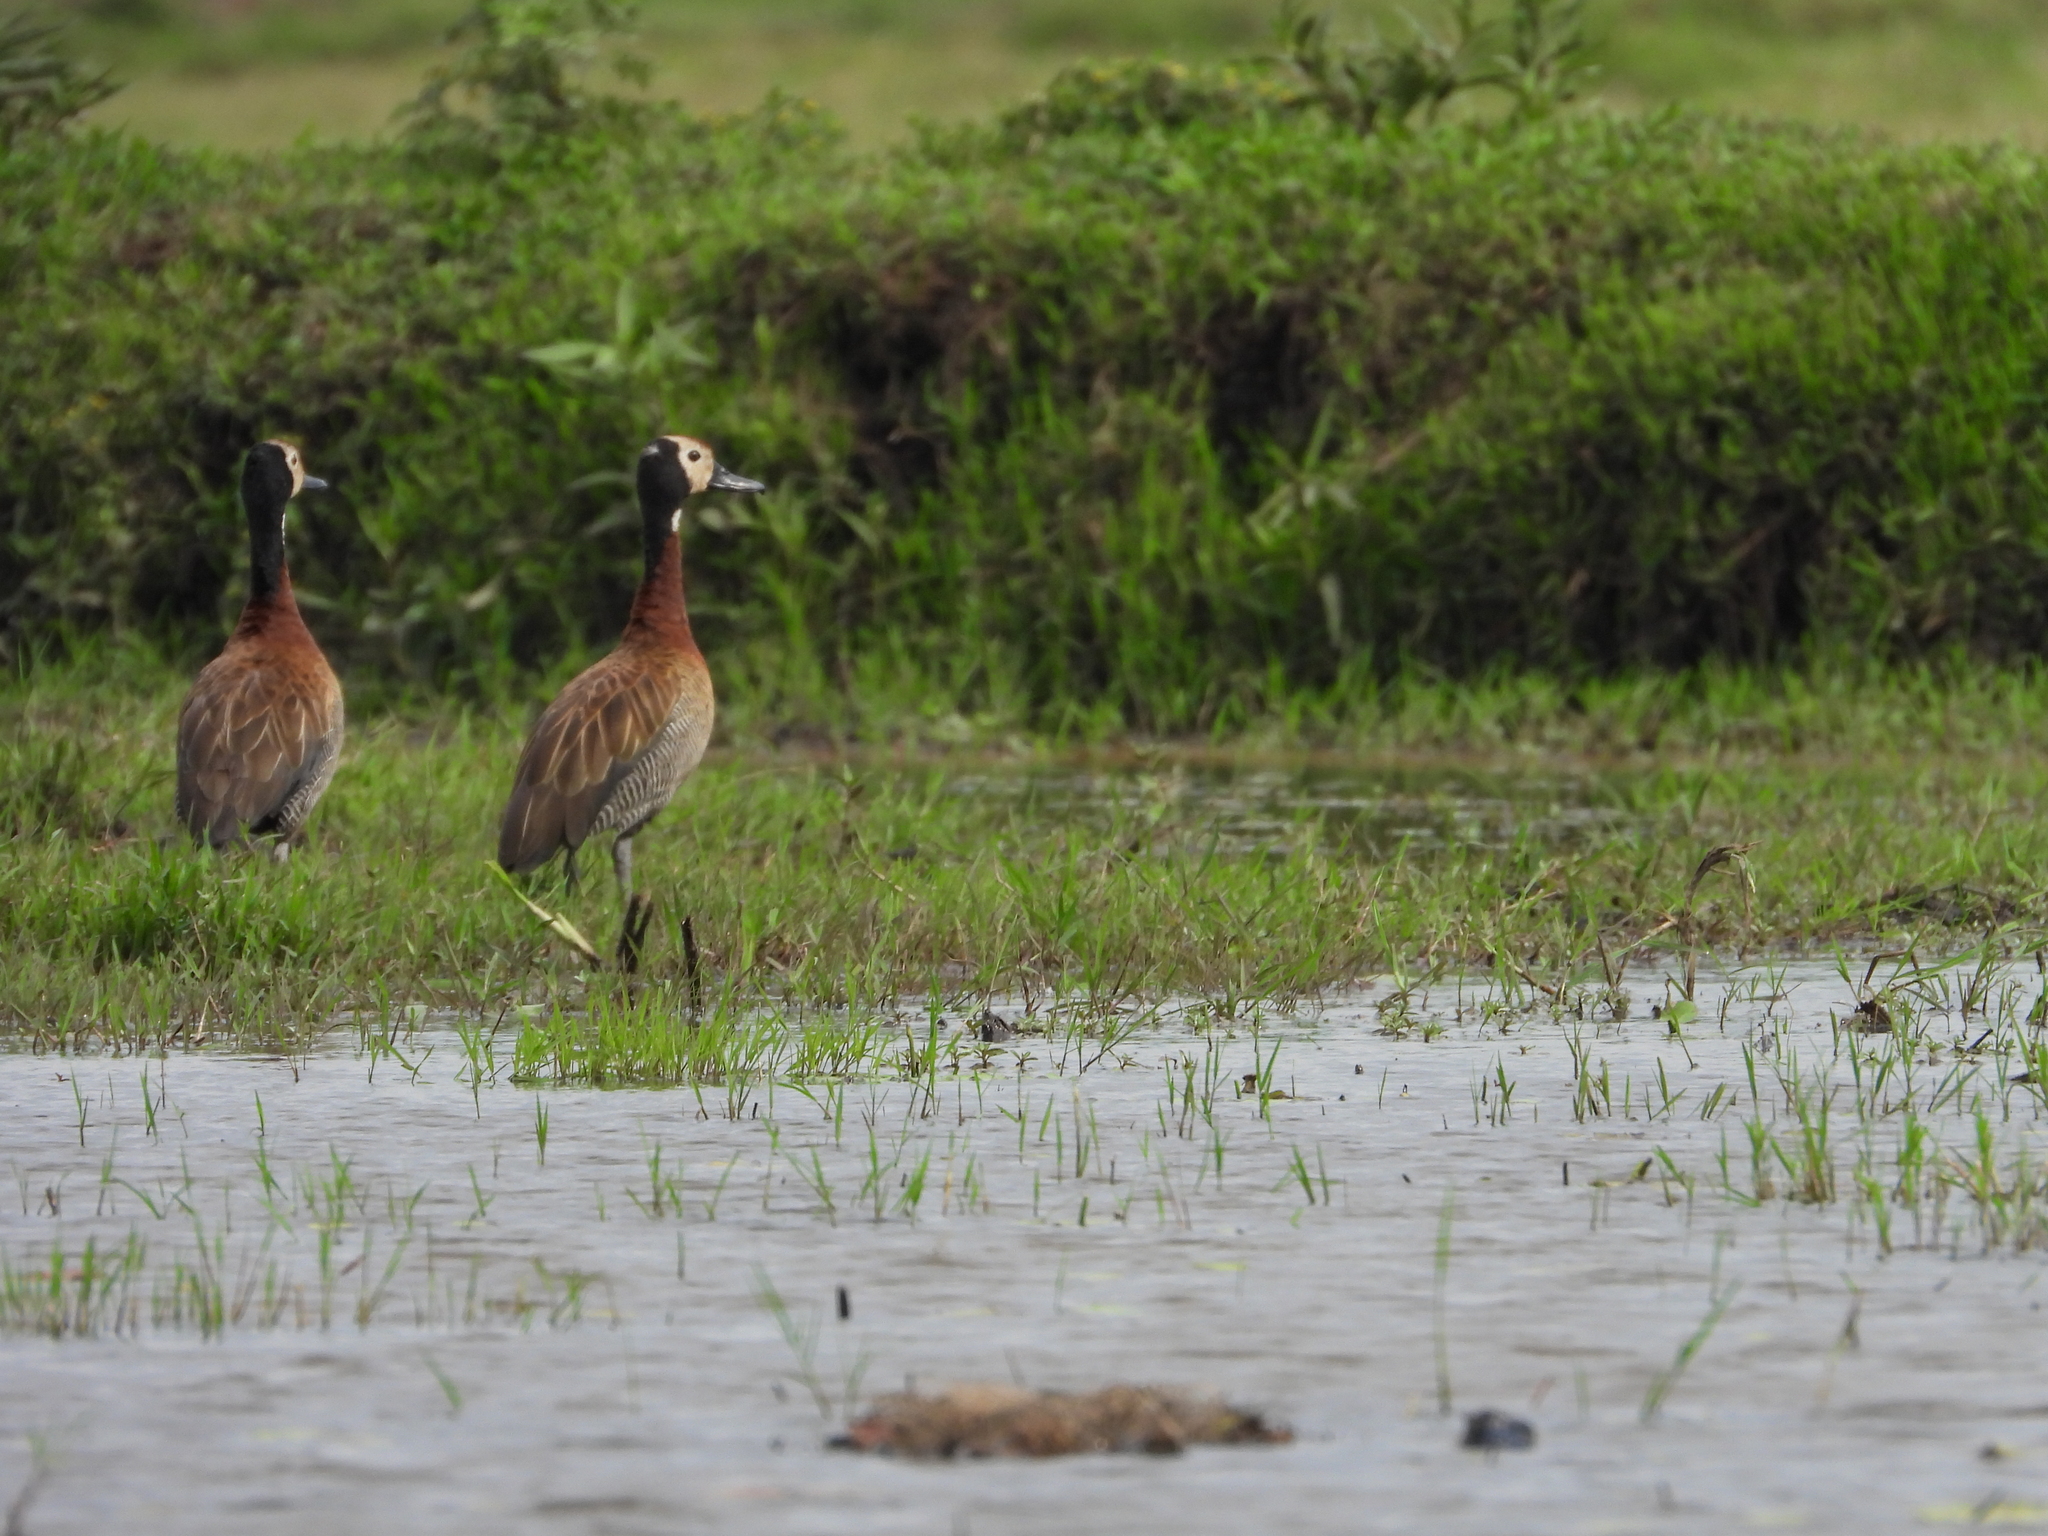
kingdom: Animalia
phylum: Chordata
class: Aves
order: Anseriformes
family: Anatidae
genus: Dendrocygna
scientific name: Dendrocygna viduata
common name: White-faced whistling duck
